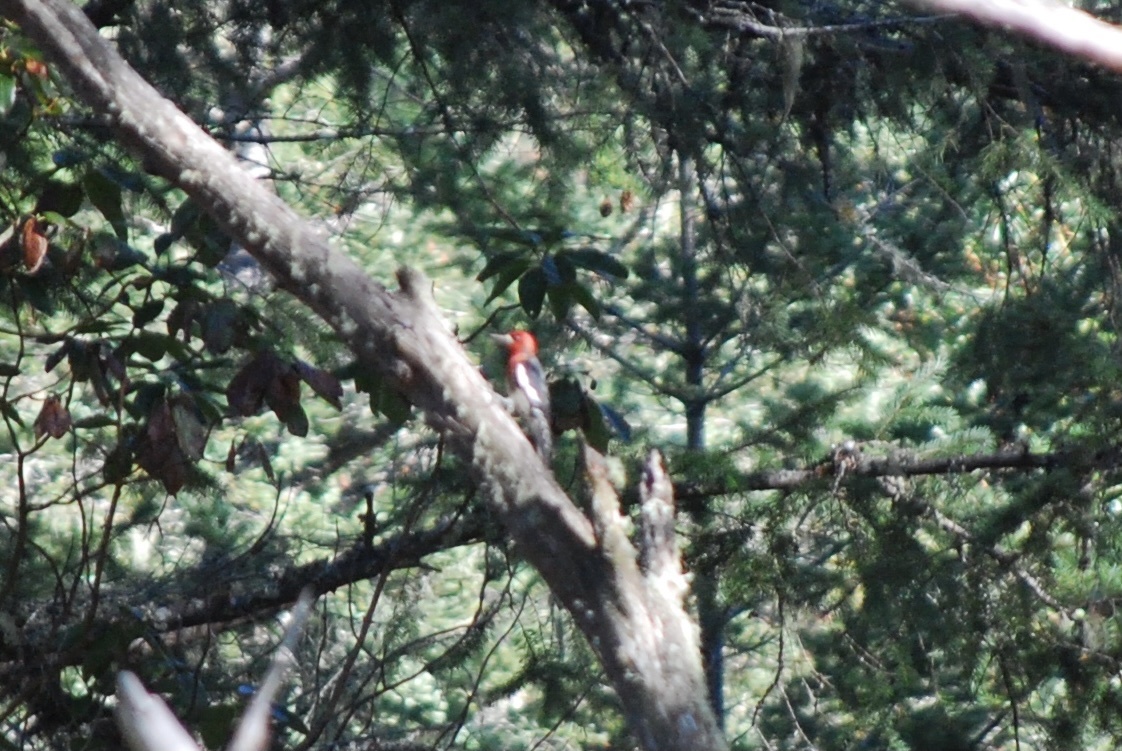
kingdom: Animalia
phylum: Chordata
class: Aves
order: Piciformes
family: Picidae
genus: Sphyrapicus
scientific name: Sphyrapicus ruber
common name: Red-breasted sapsucker
